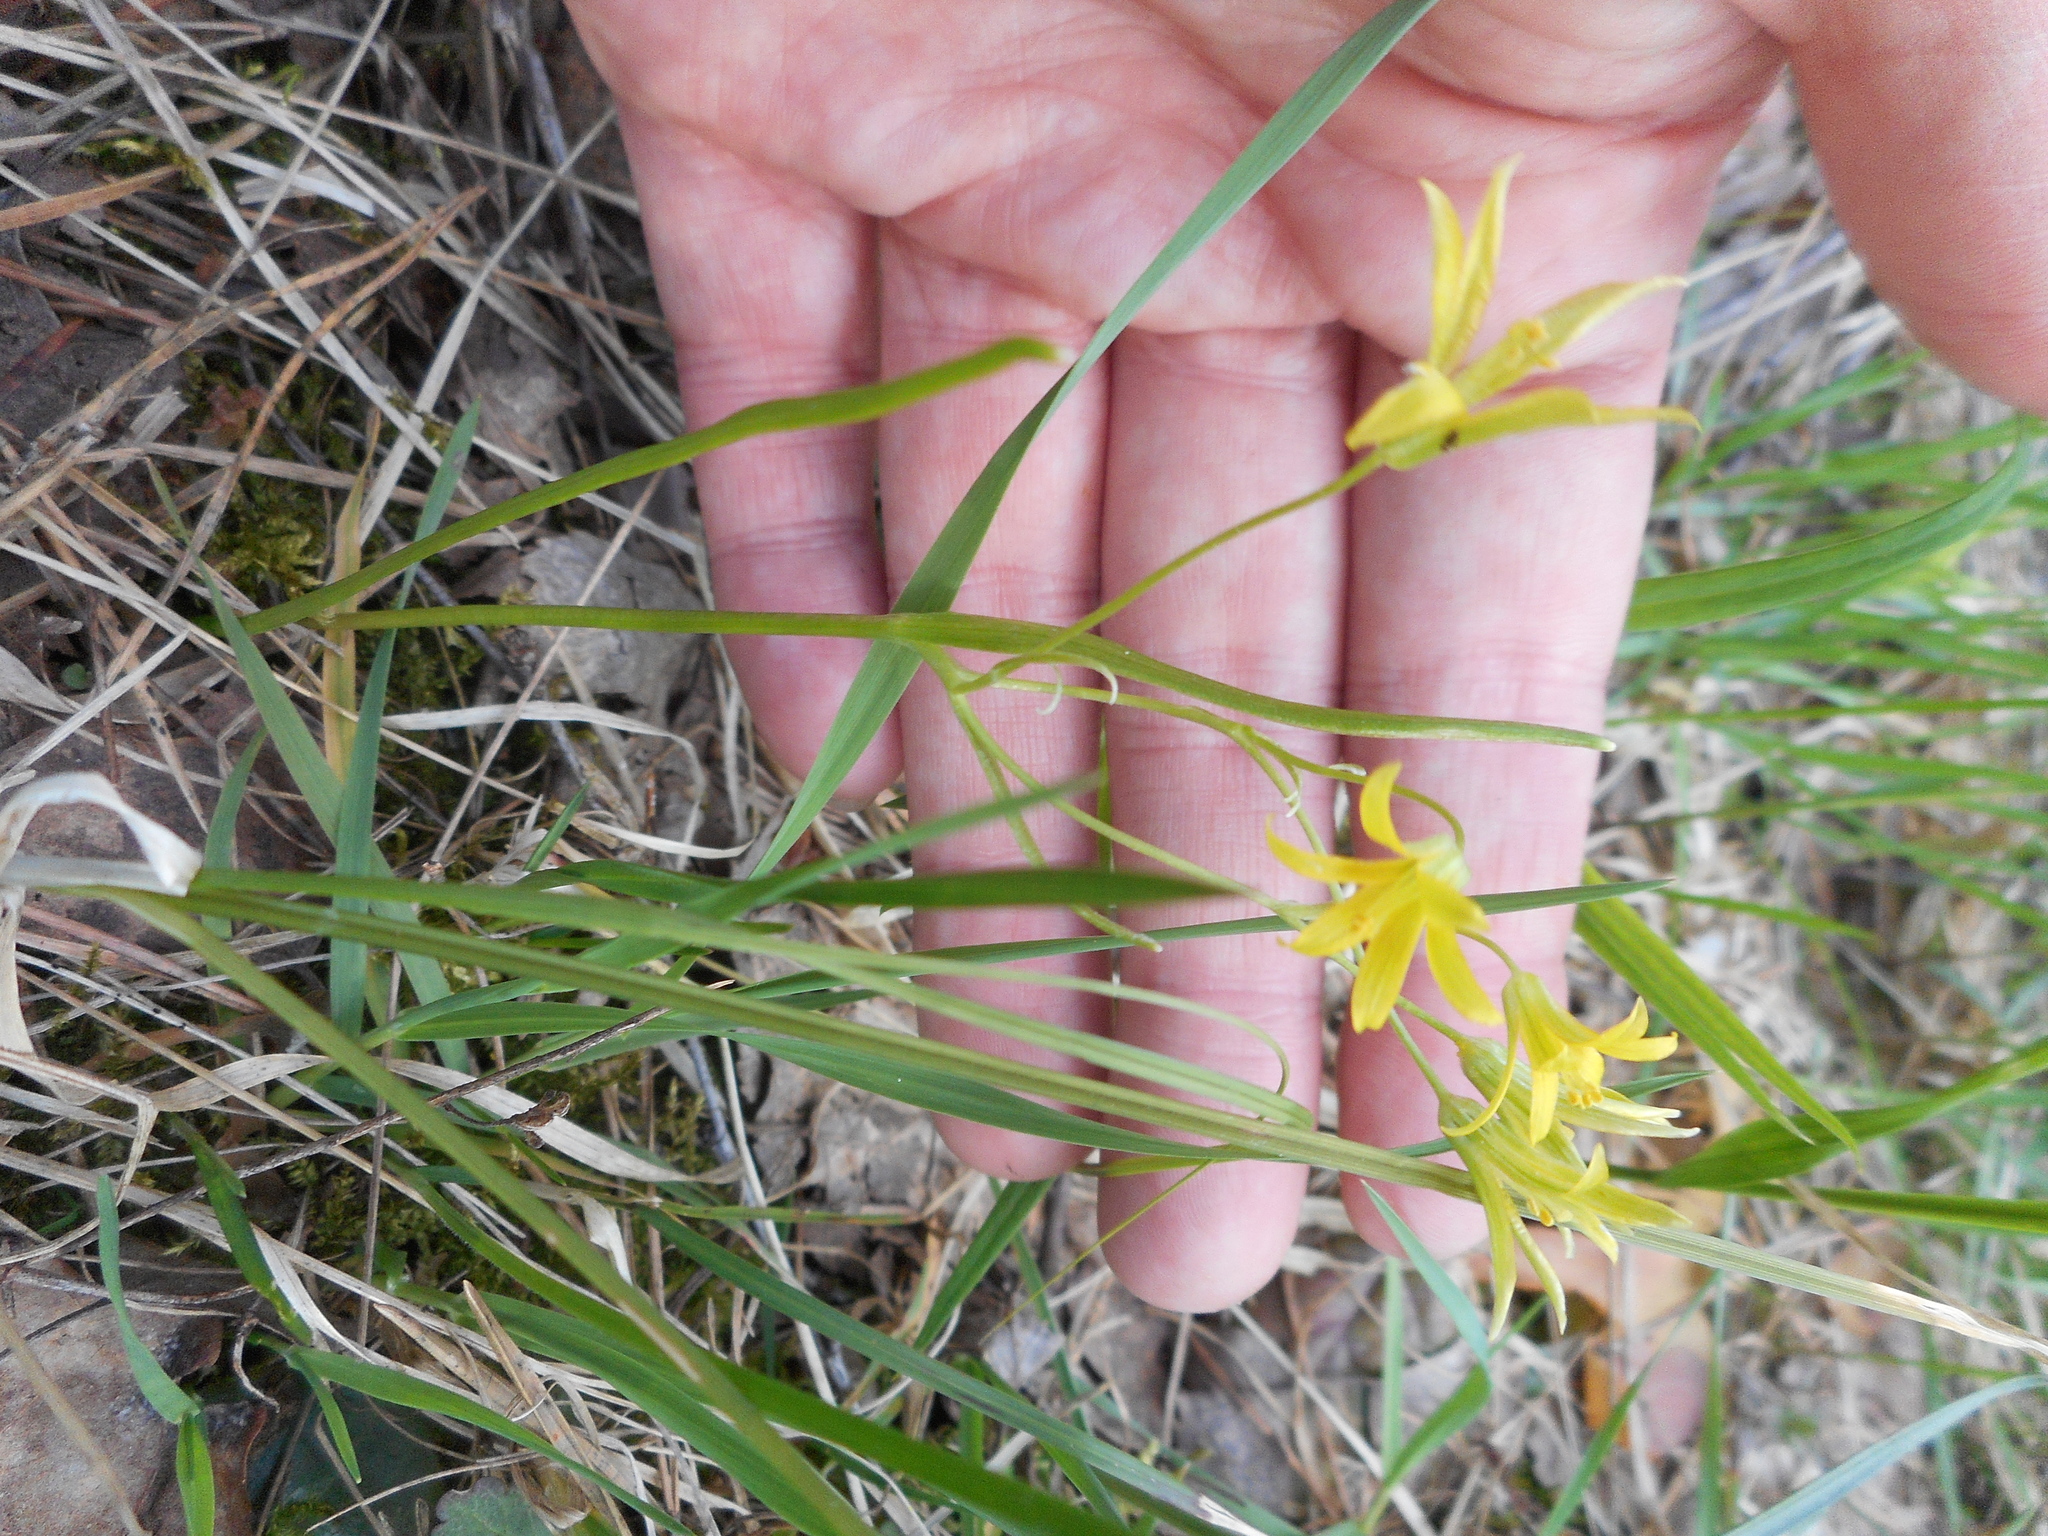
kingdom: Plantae
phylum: Tracheophyta
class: Liliopsida
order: Liliales
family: Liliaceae
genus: Gagea
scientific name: Gagea minima
